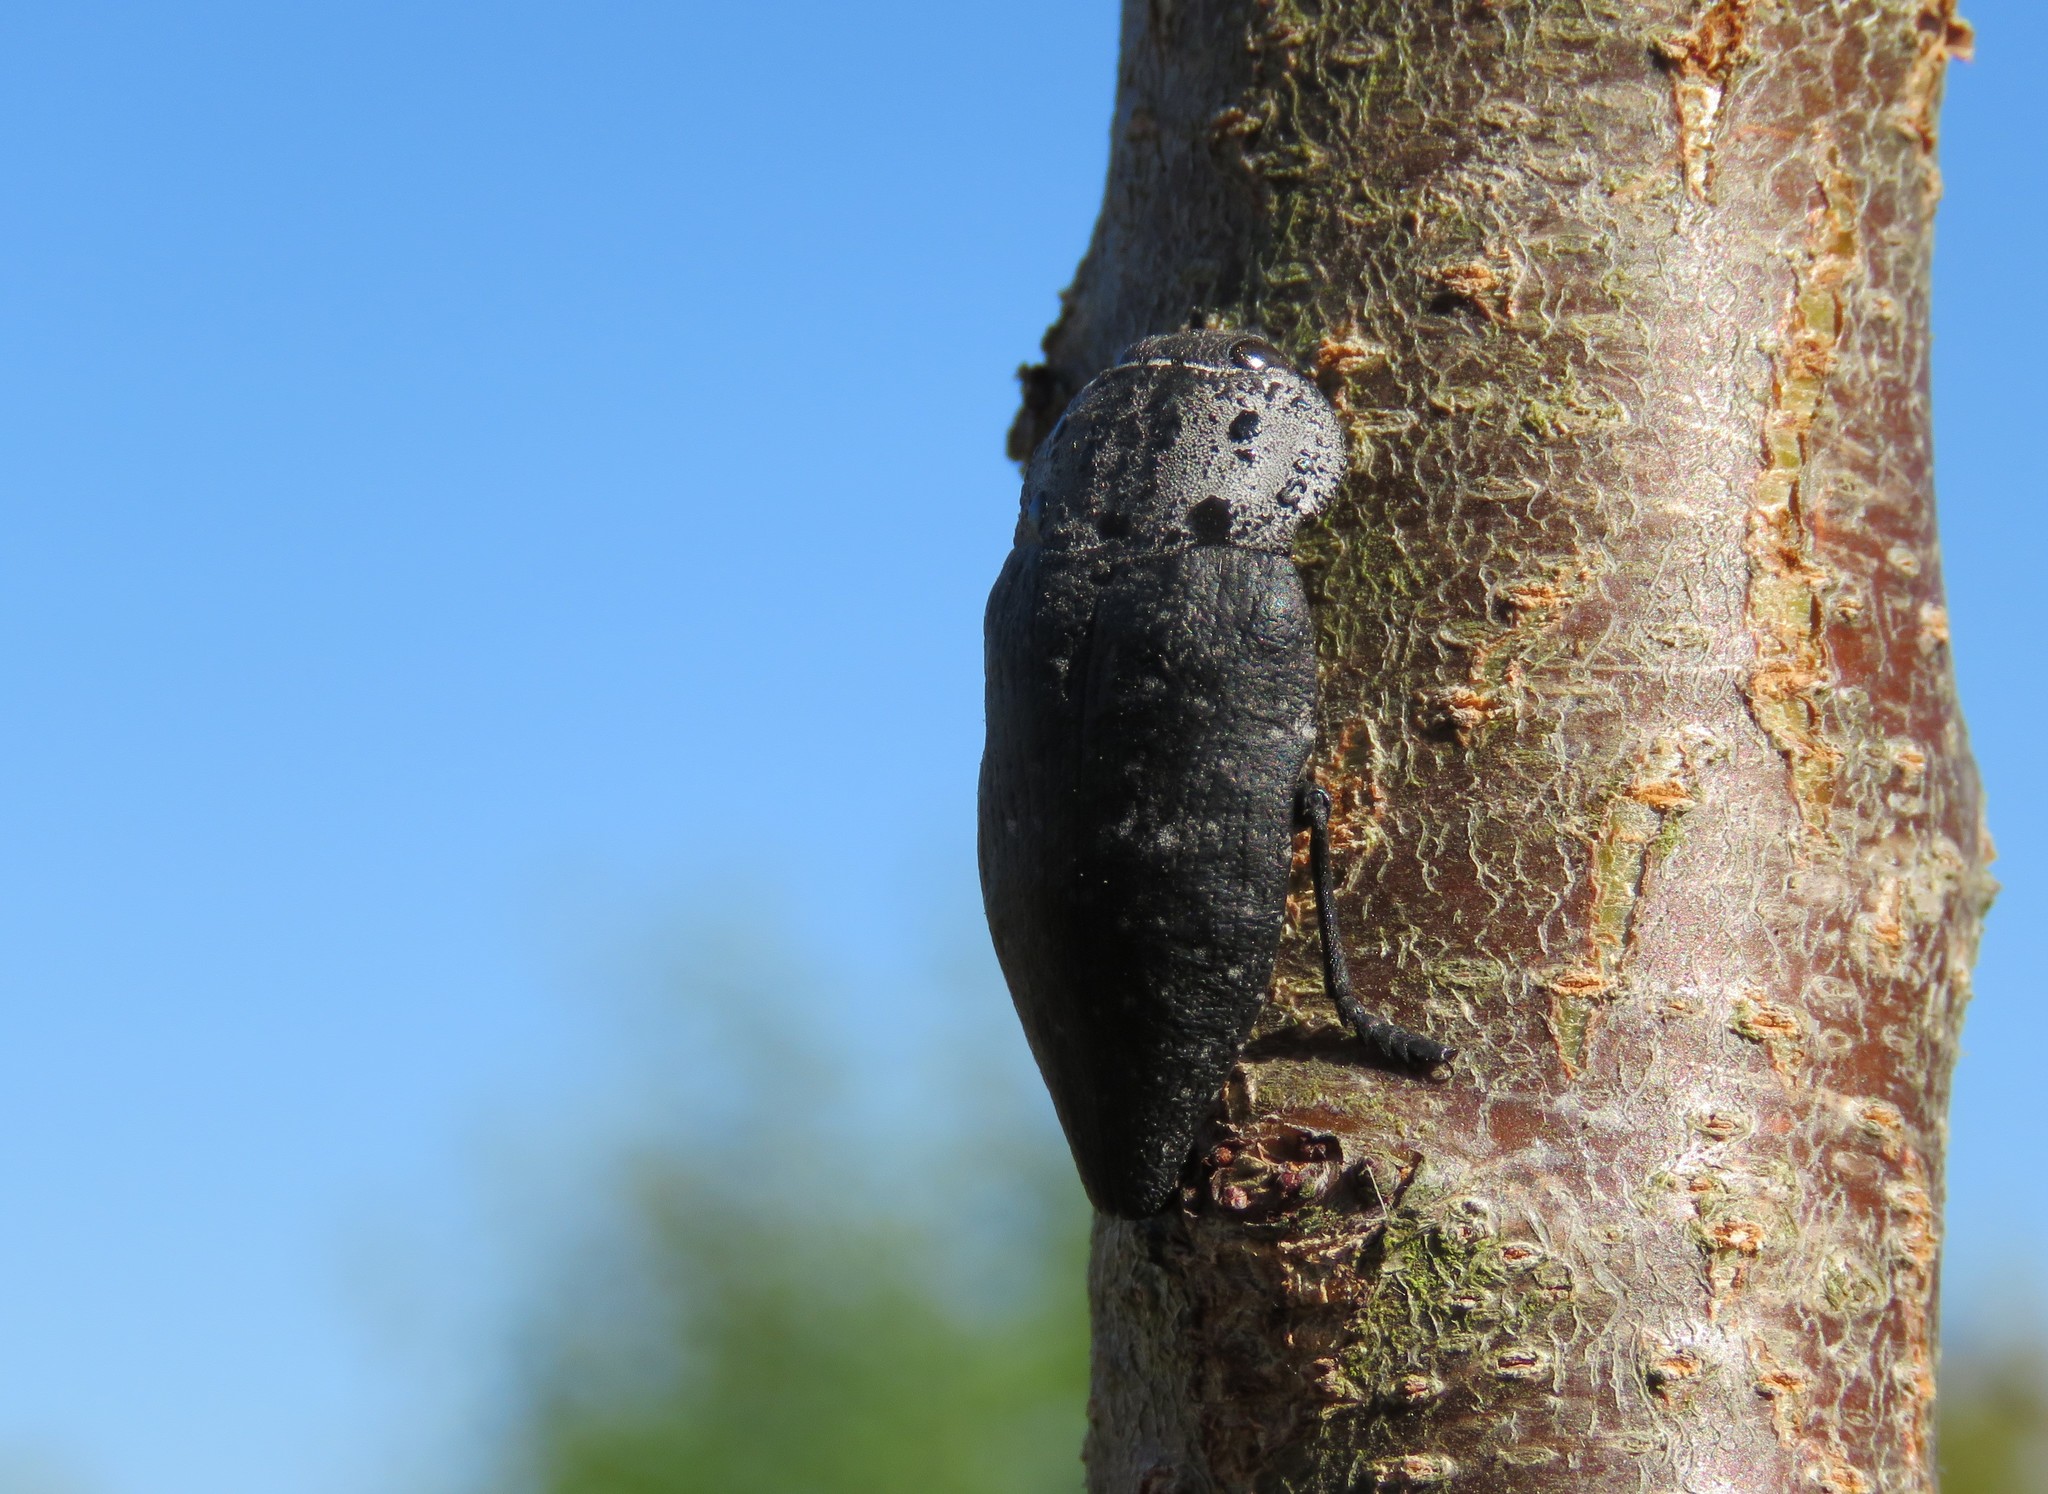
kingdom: Animalia
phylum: Arthropoda
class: Insecta
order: Coleoptera
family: Buprestidae
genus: Capnodis
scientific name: Capnodis tenebrionis
